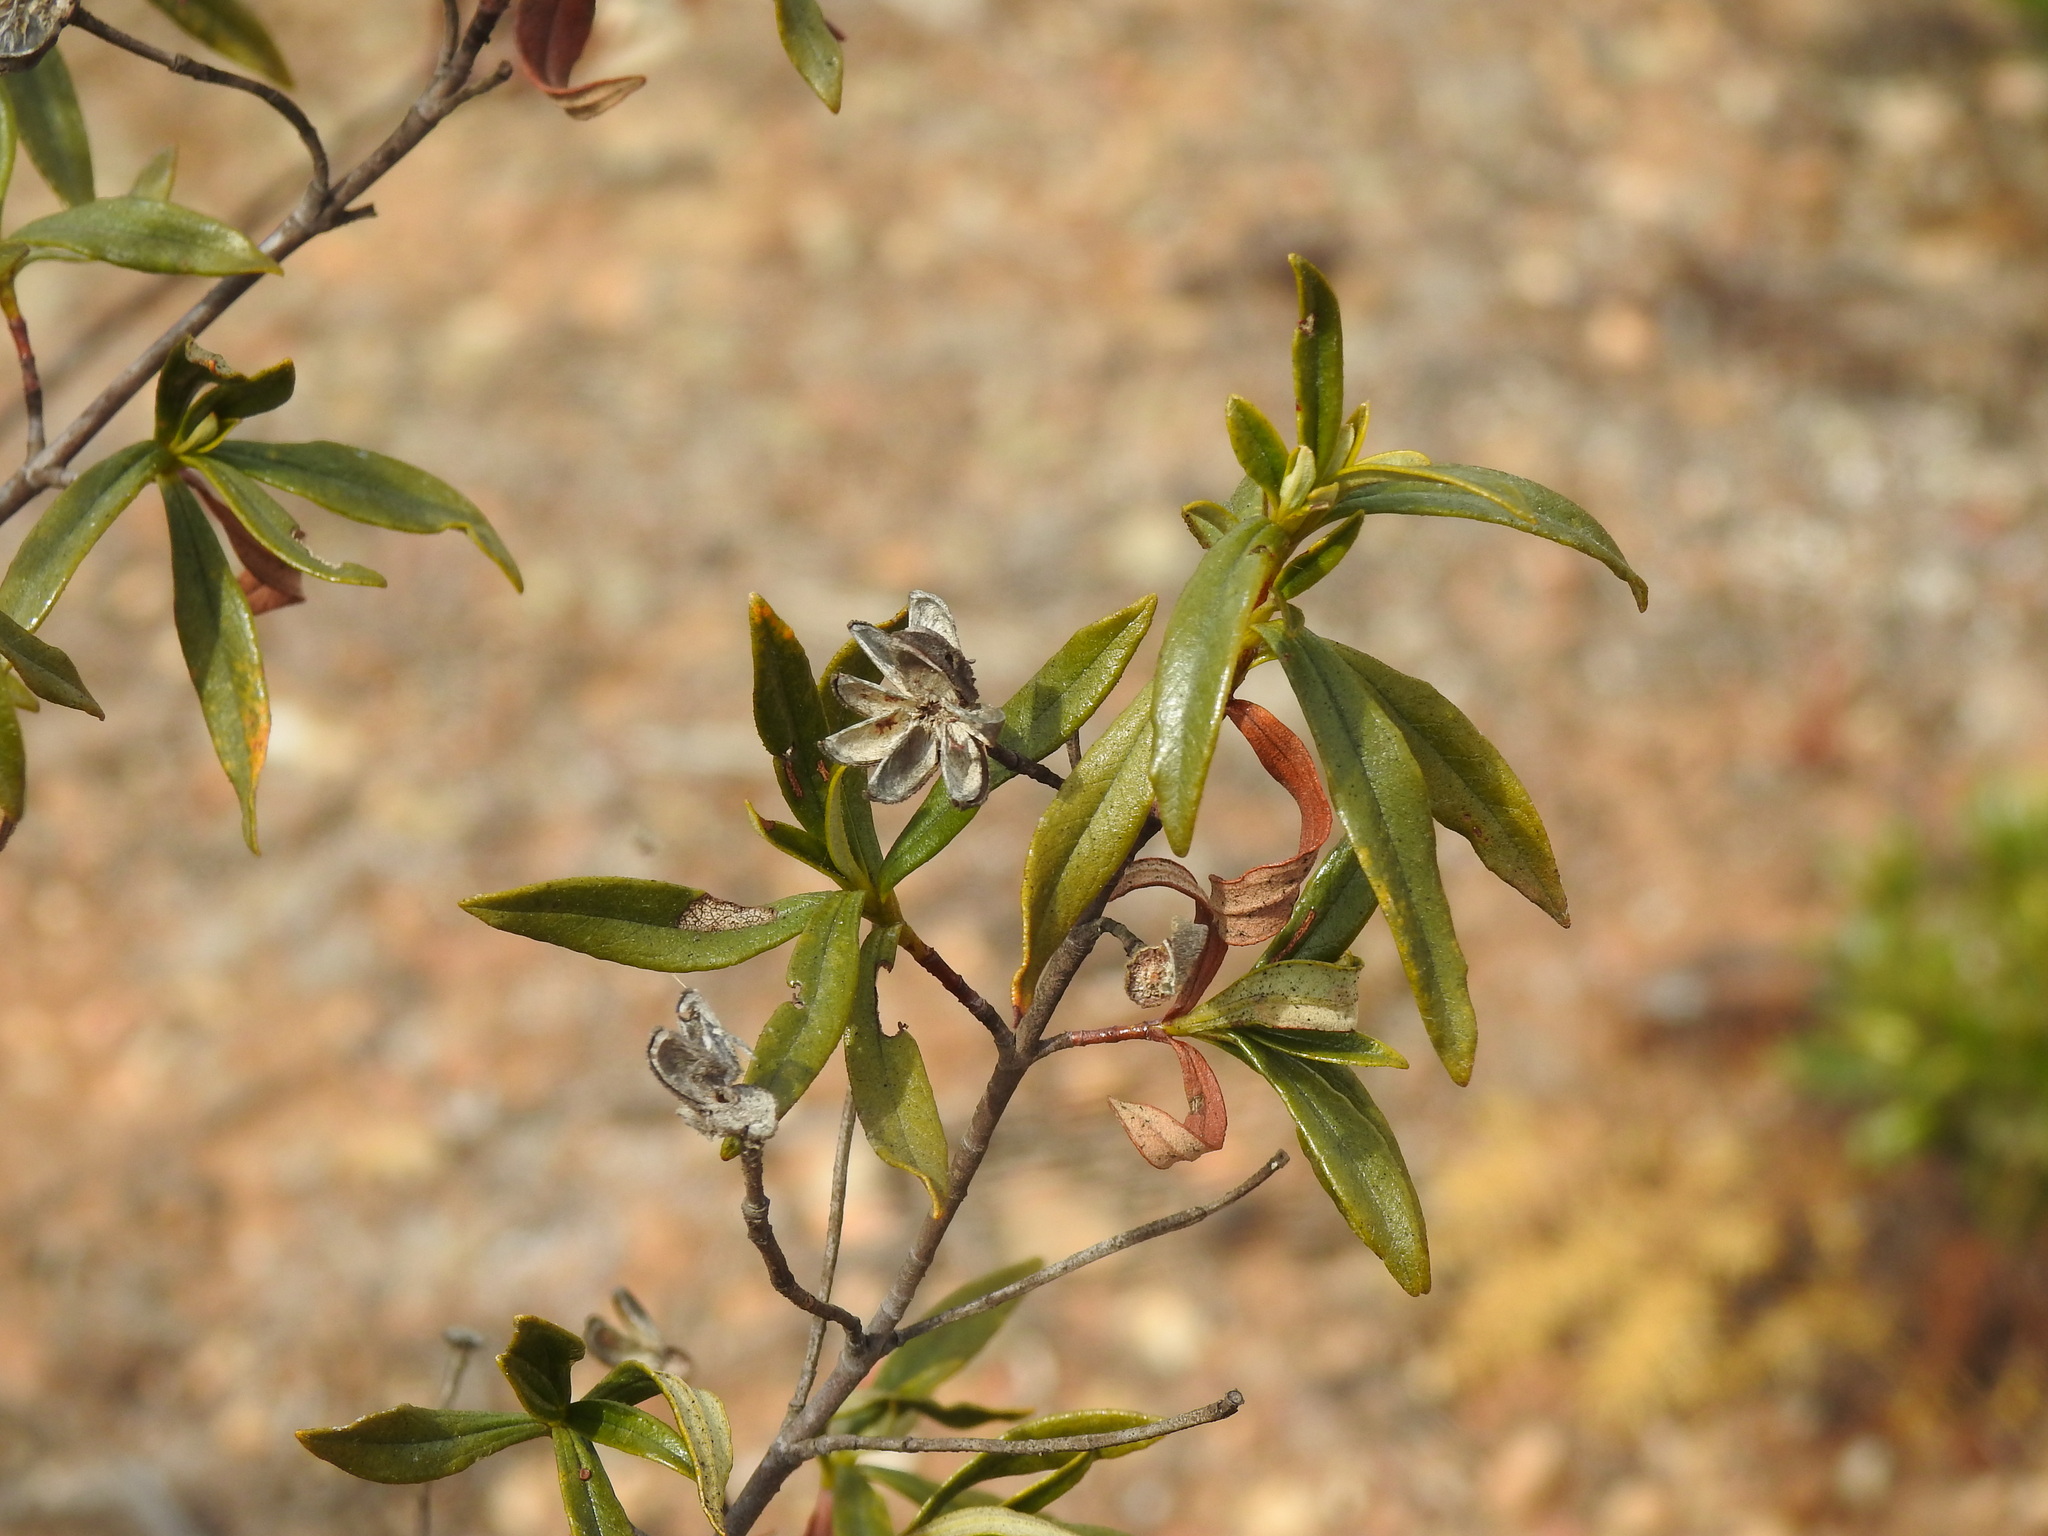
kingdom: Plantae
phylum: Tracheophyta
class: Magnoliopsida
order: Malvales
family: Cistaceae
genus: Cistus
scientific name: Cistus ladanifer
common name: Common gum cistus
